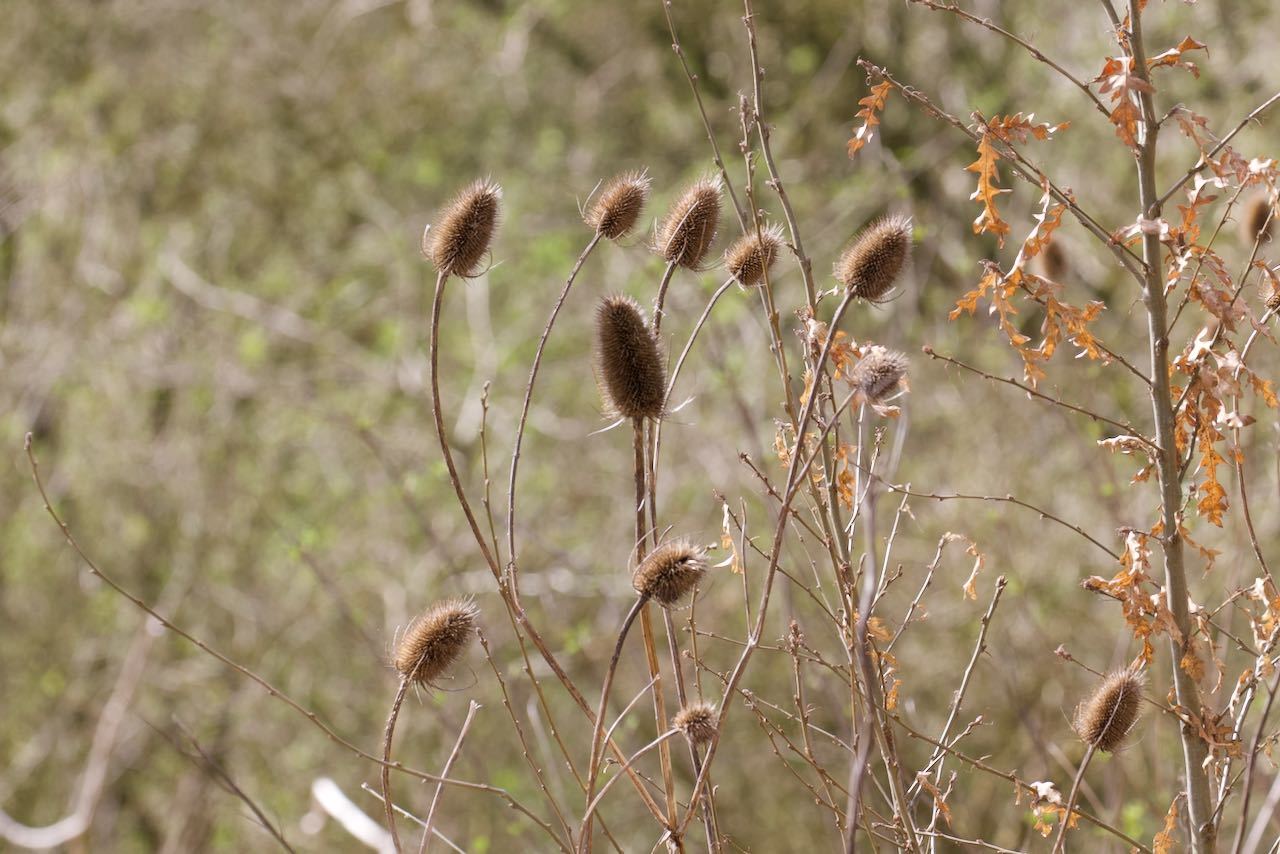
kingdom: Plantae
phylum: Tracheophyta
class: Magnoliopsida
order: Dipsacales
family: Caprifoliaceae
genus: Dipsacus
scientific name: Dipsacus fullonum
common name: Teasel
